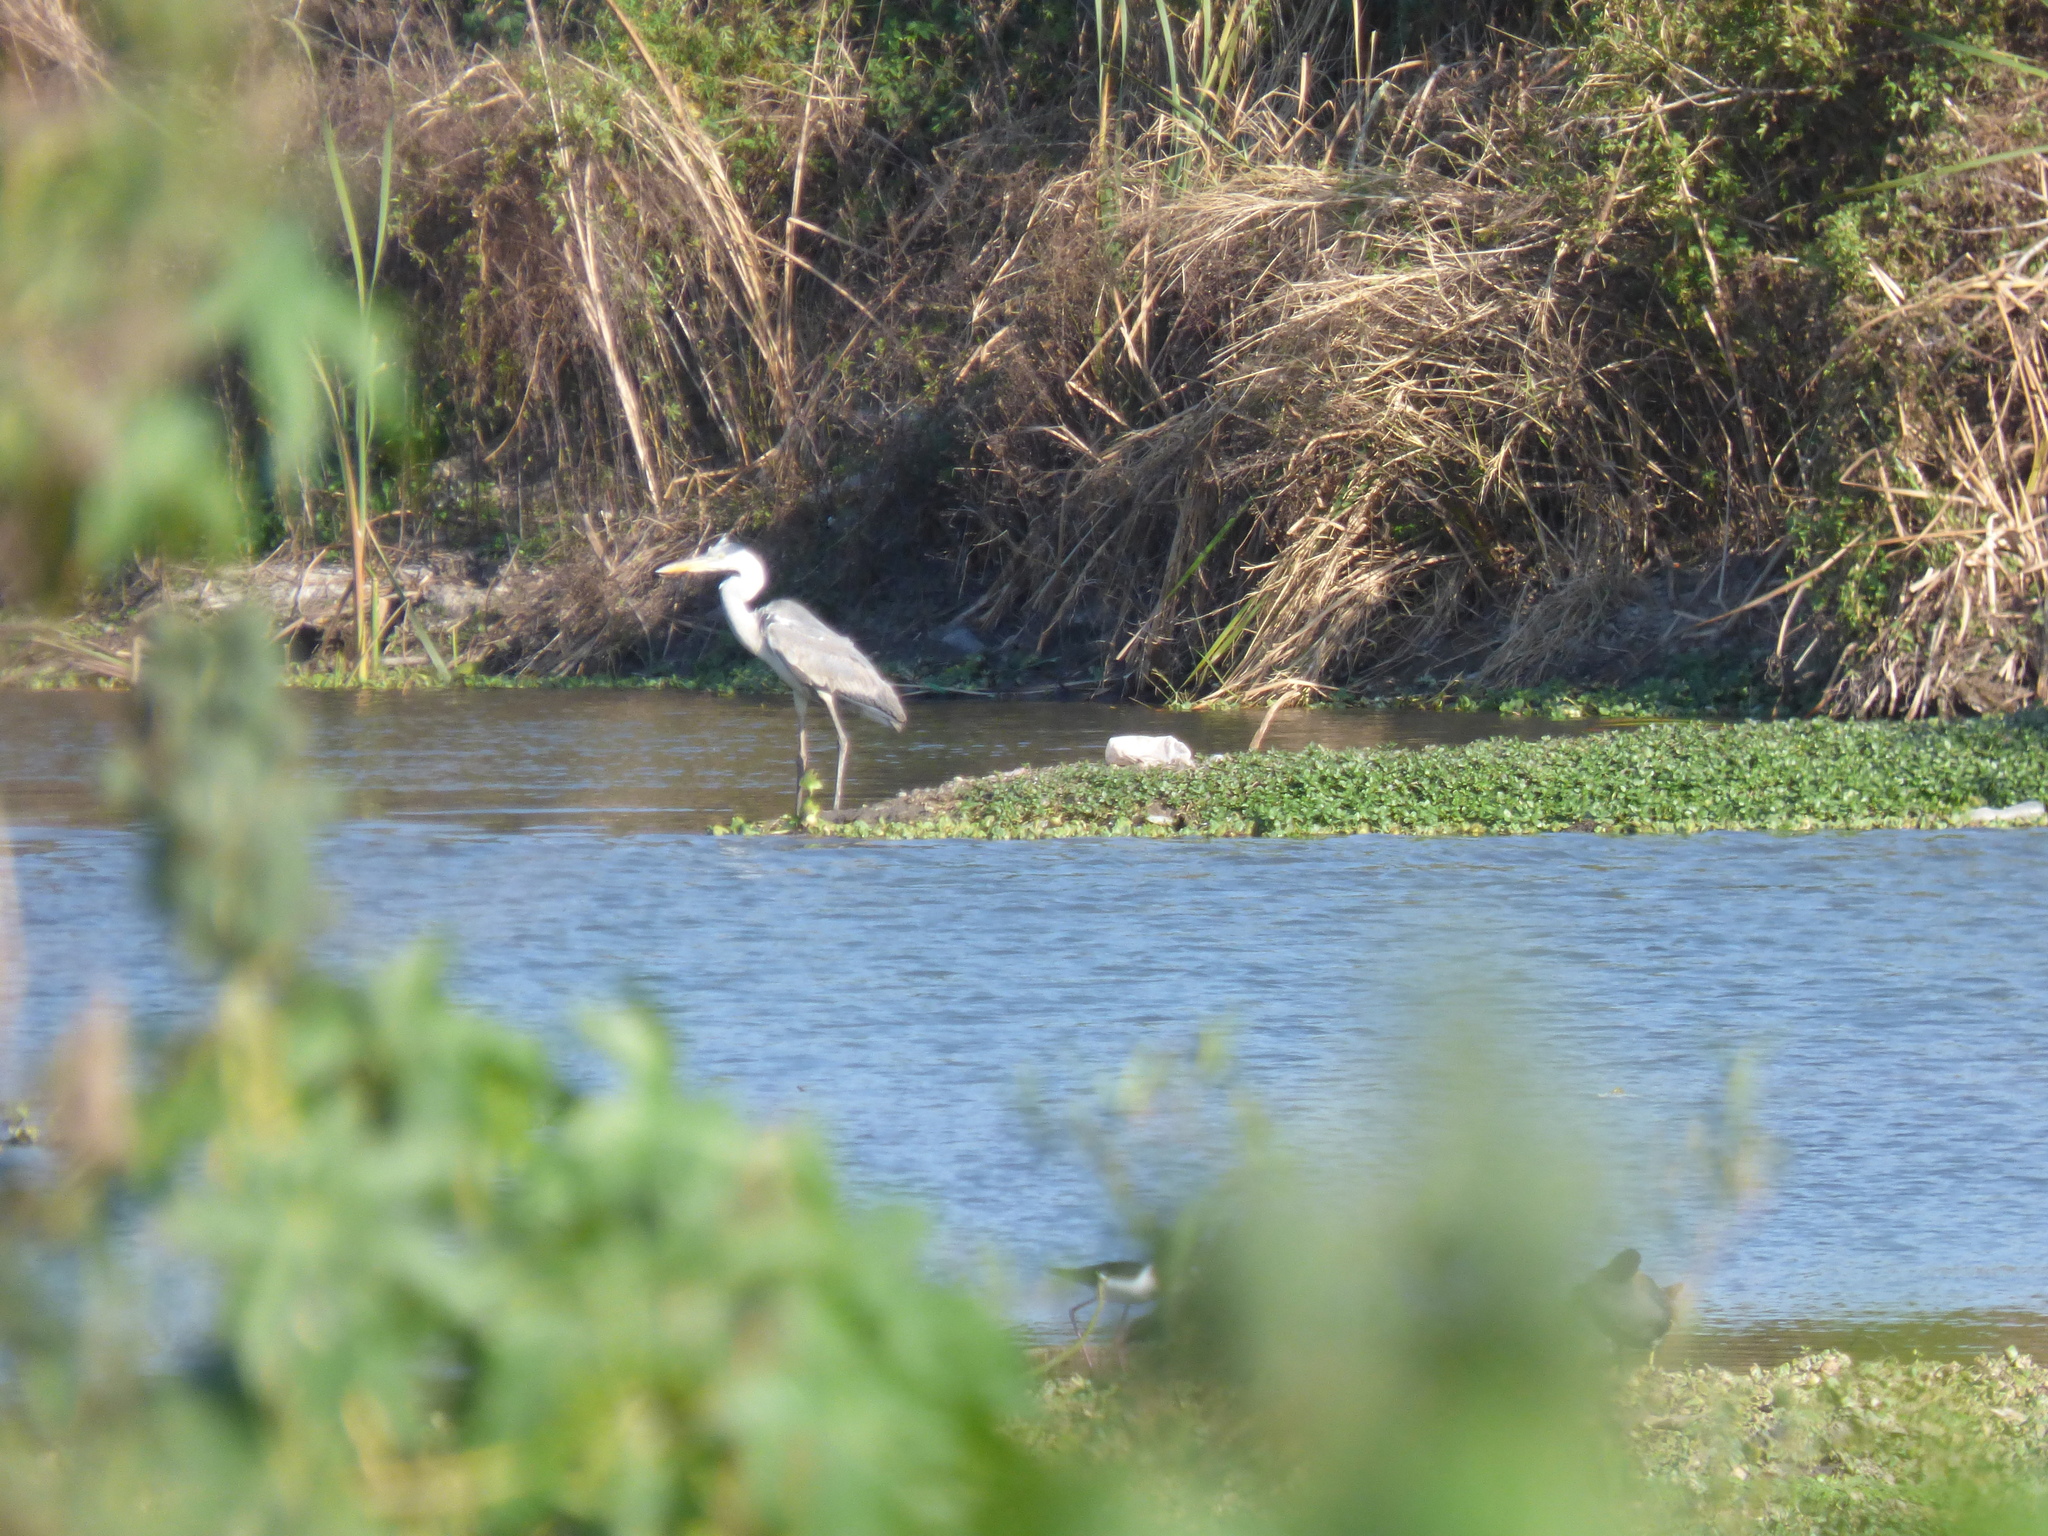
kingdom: Animalia
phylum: Chordata
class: Aves
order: Pelecaniformes
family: Ardeidae
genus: Ardea
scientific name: Ardea cocoi
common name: Cocoi heron
